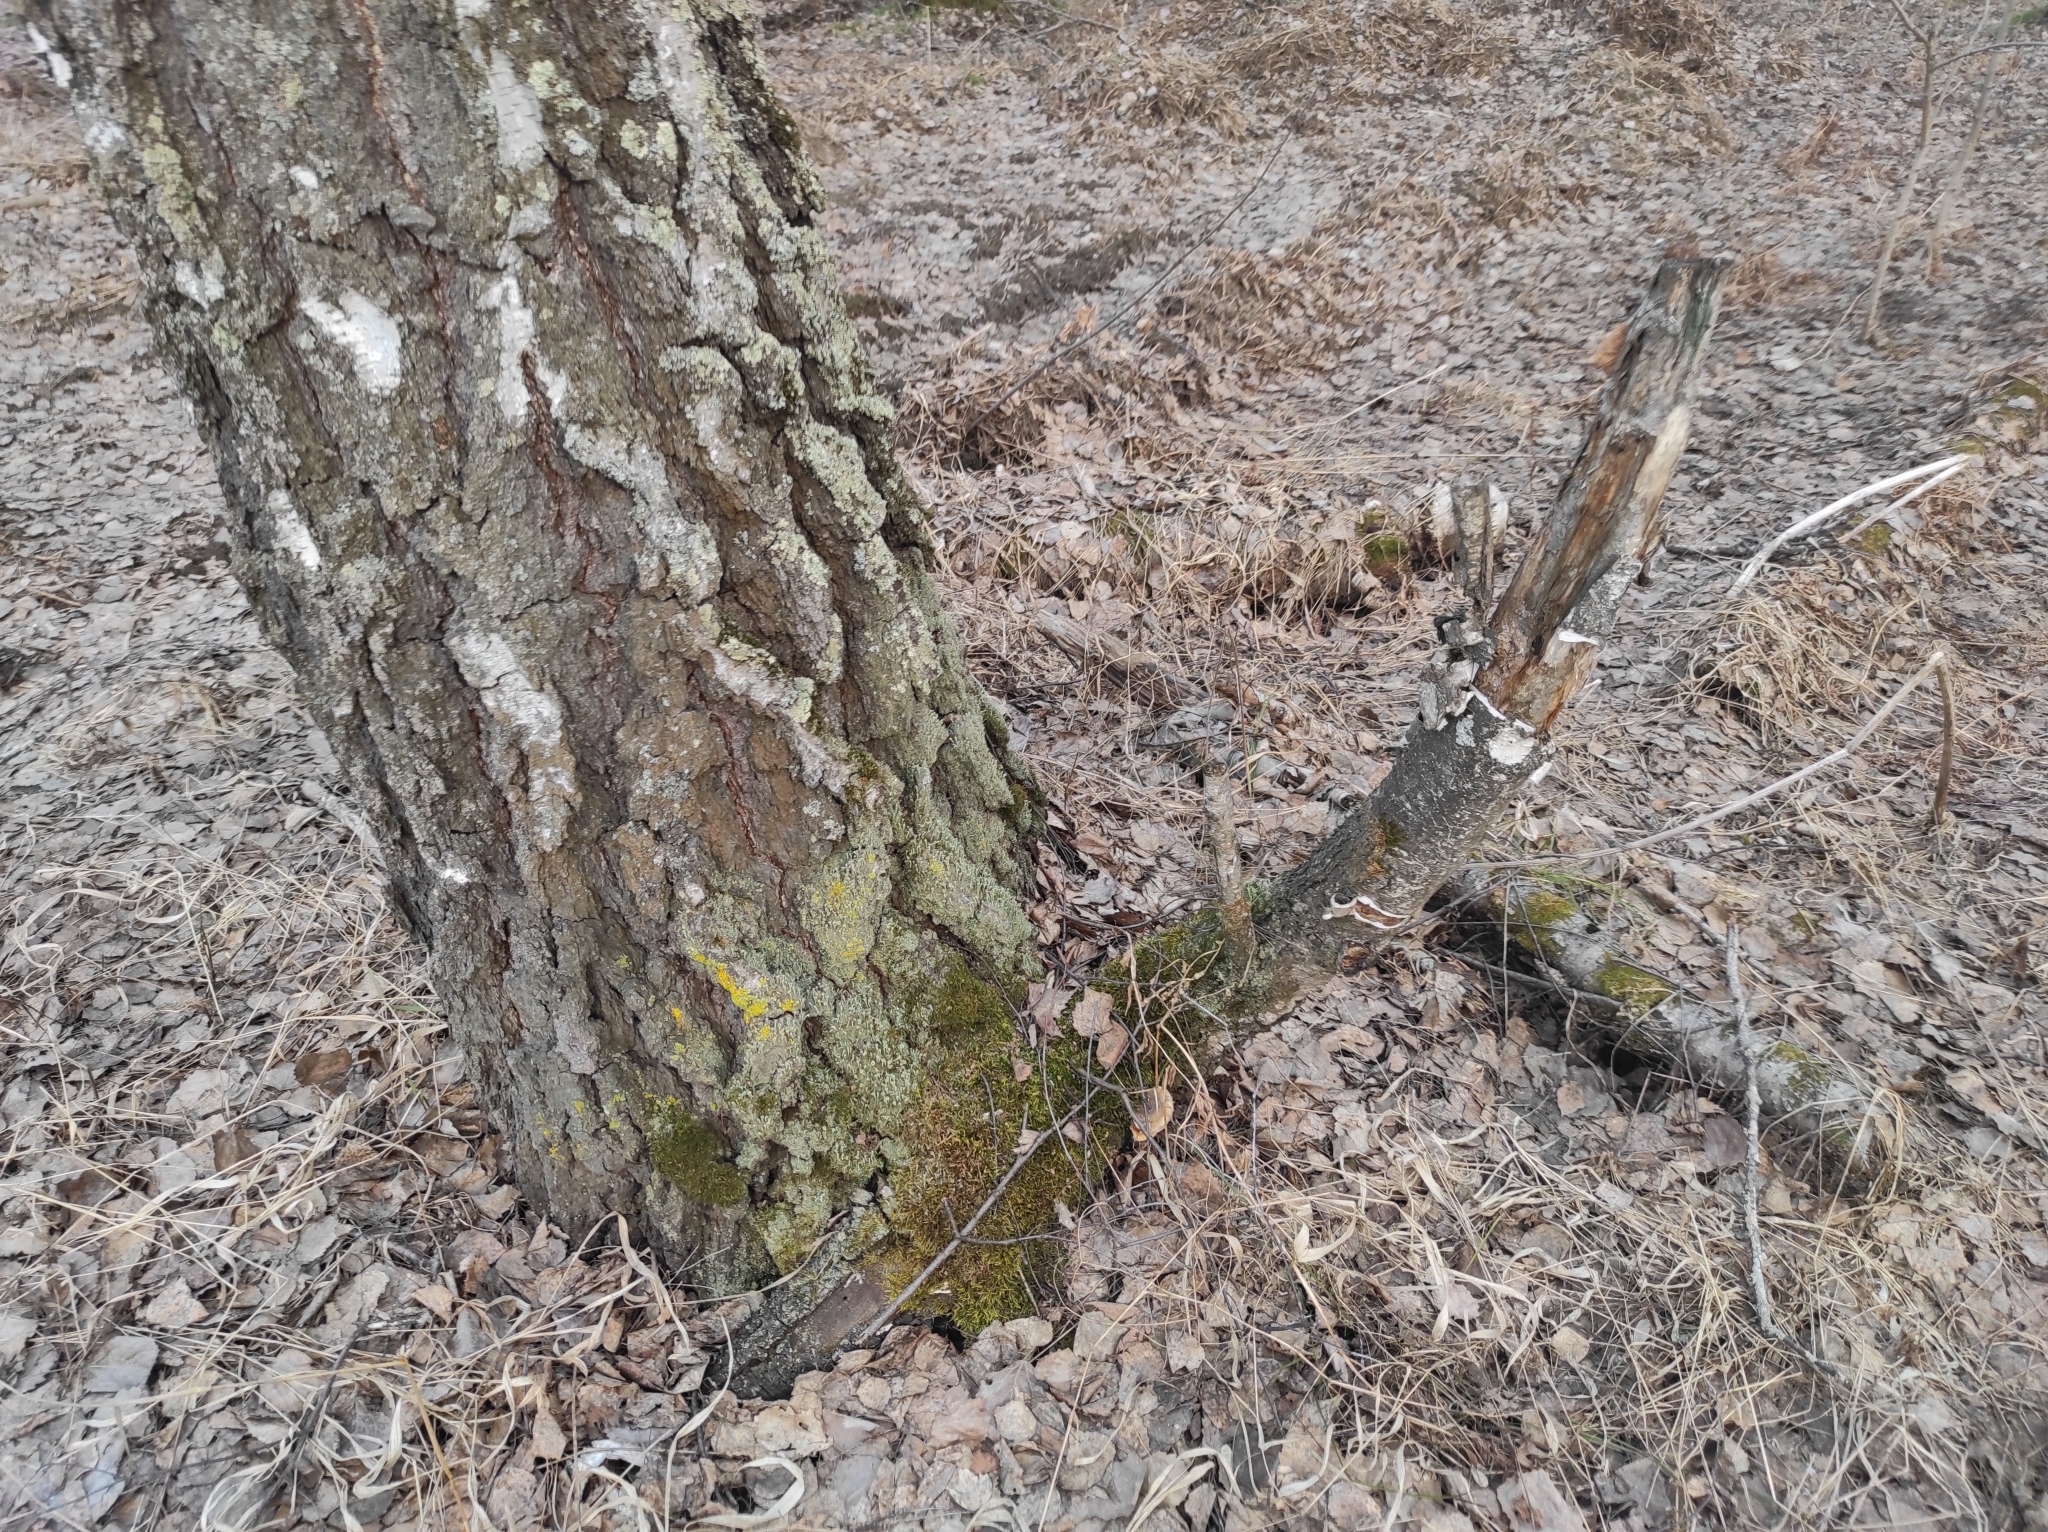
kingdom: Plantae
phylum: Tracheophyta
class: Magnoliopsida
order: Fagales
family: Betulaceae
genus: Betula
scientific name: Betula pendula
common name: Silver birch
